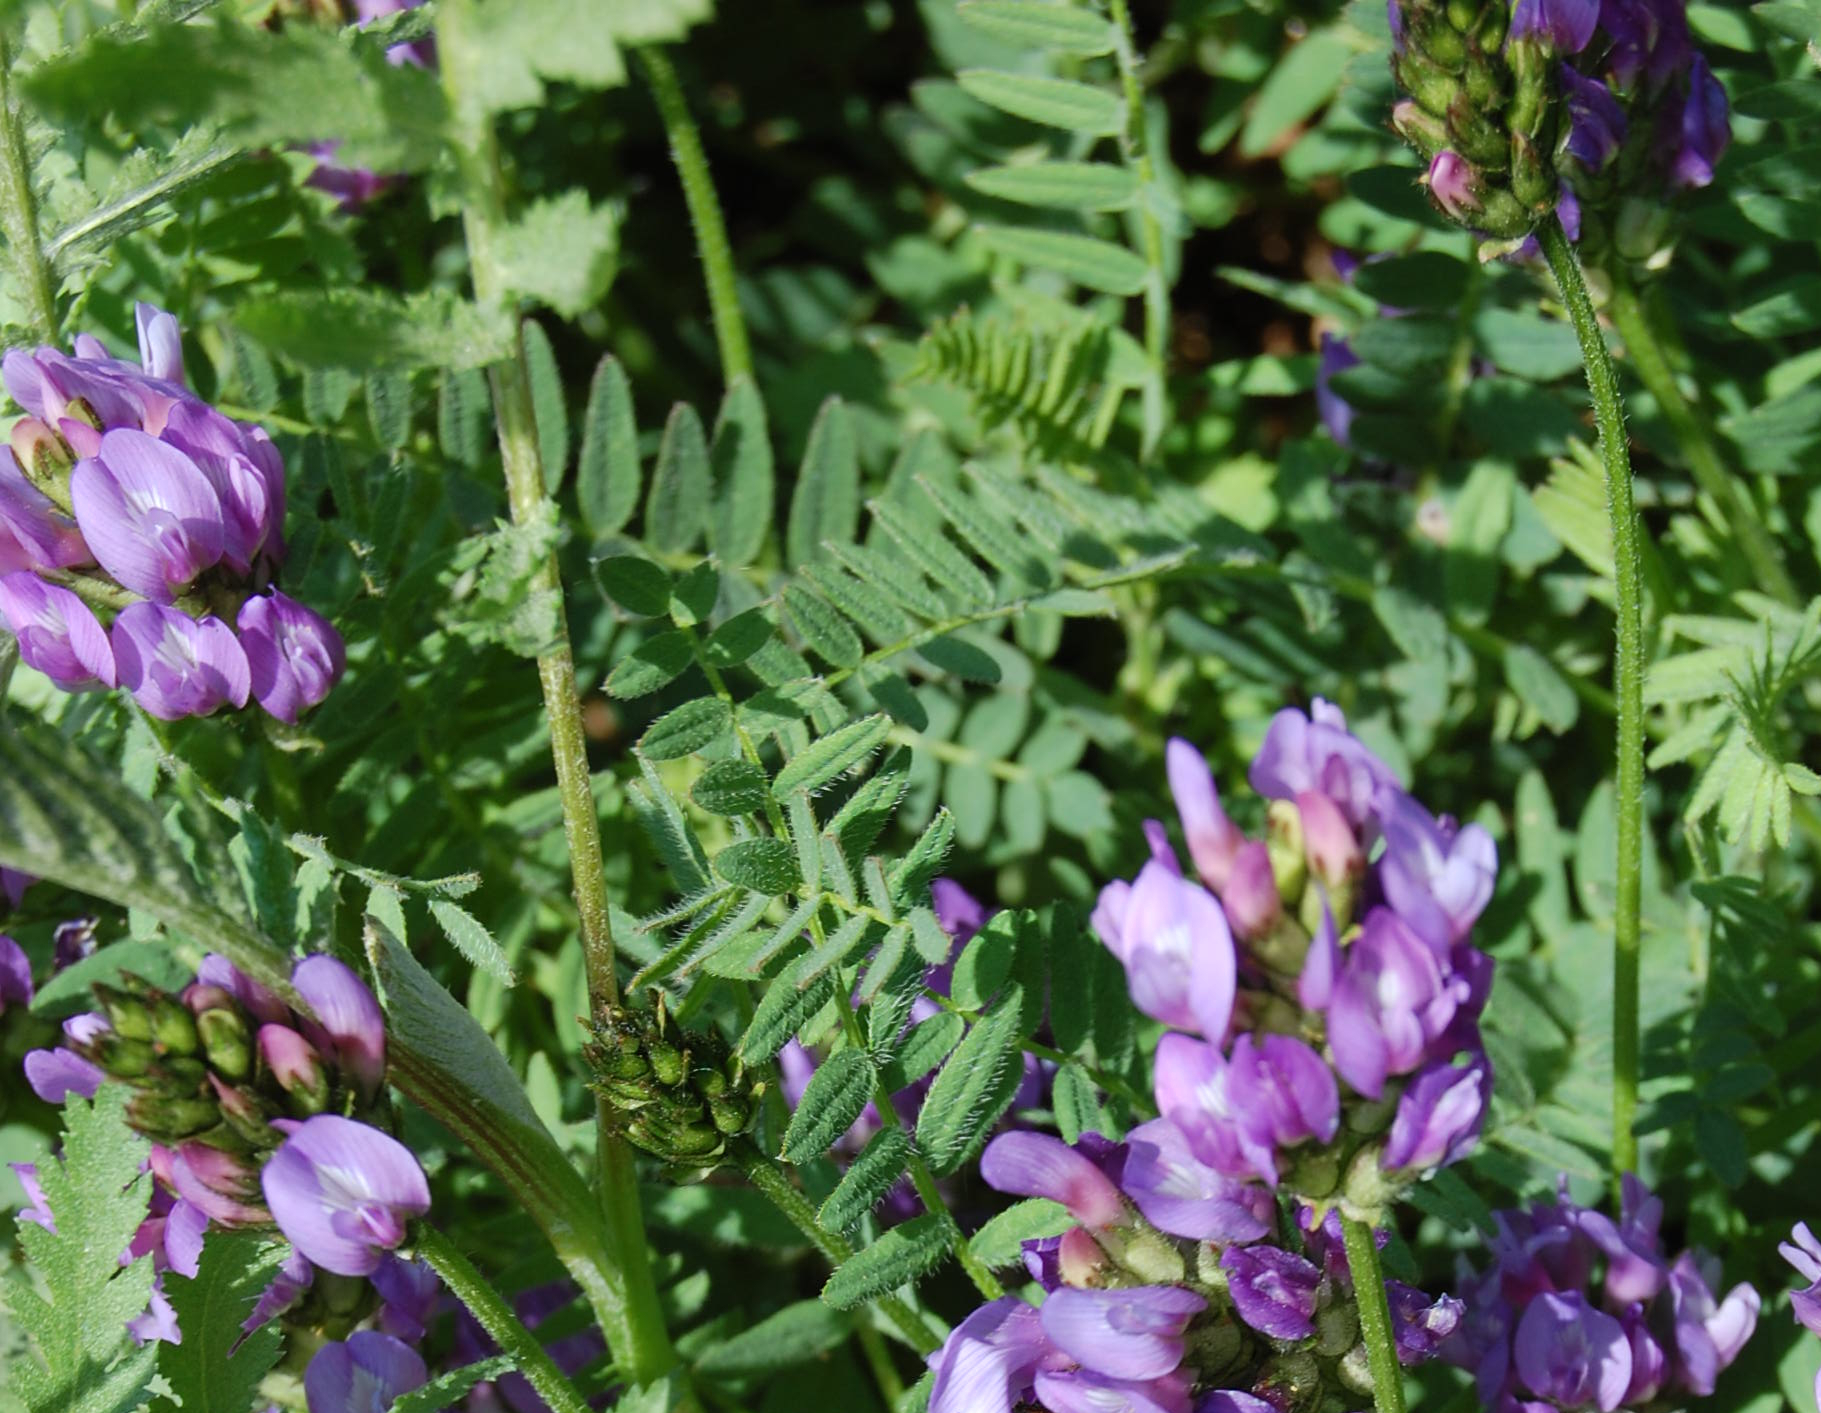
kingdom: Plantae
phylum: Tracheophyta
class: Magnoliopsida
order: Fabales
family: Fabaceae
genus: Astragalus
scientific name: Astragalus danicus
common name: Purple milk-vetch
